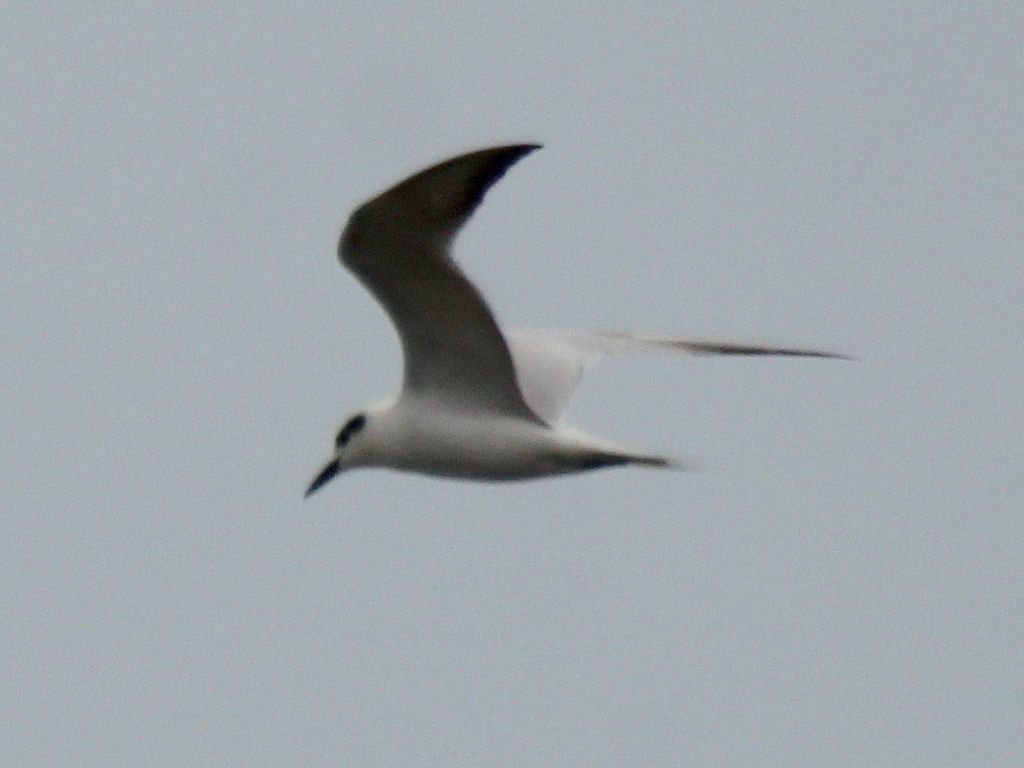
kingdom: Animalia
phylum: Chordata
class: Aves
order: Charadriiformes
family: Laridae
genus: Gelochelidon
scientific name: Gelochelidon nilotica
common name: Gull-billed tern
